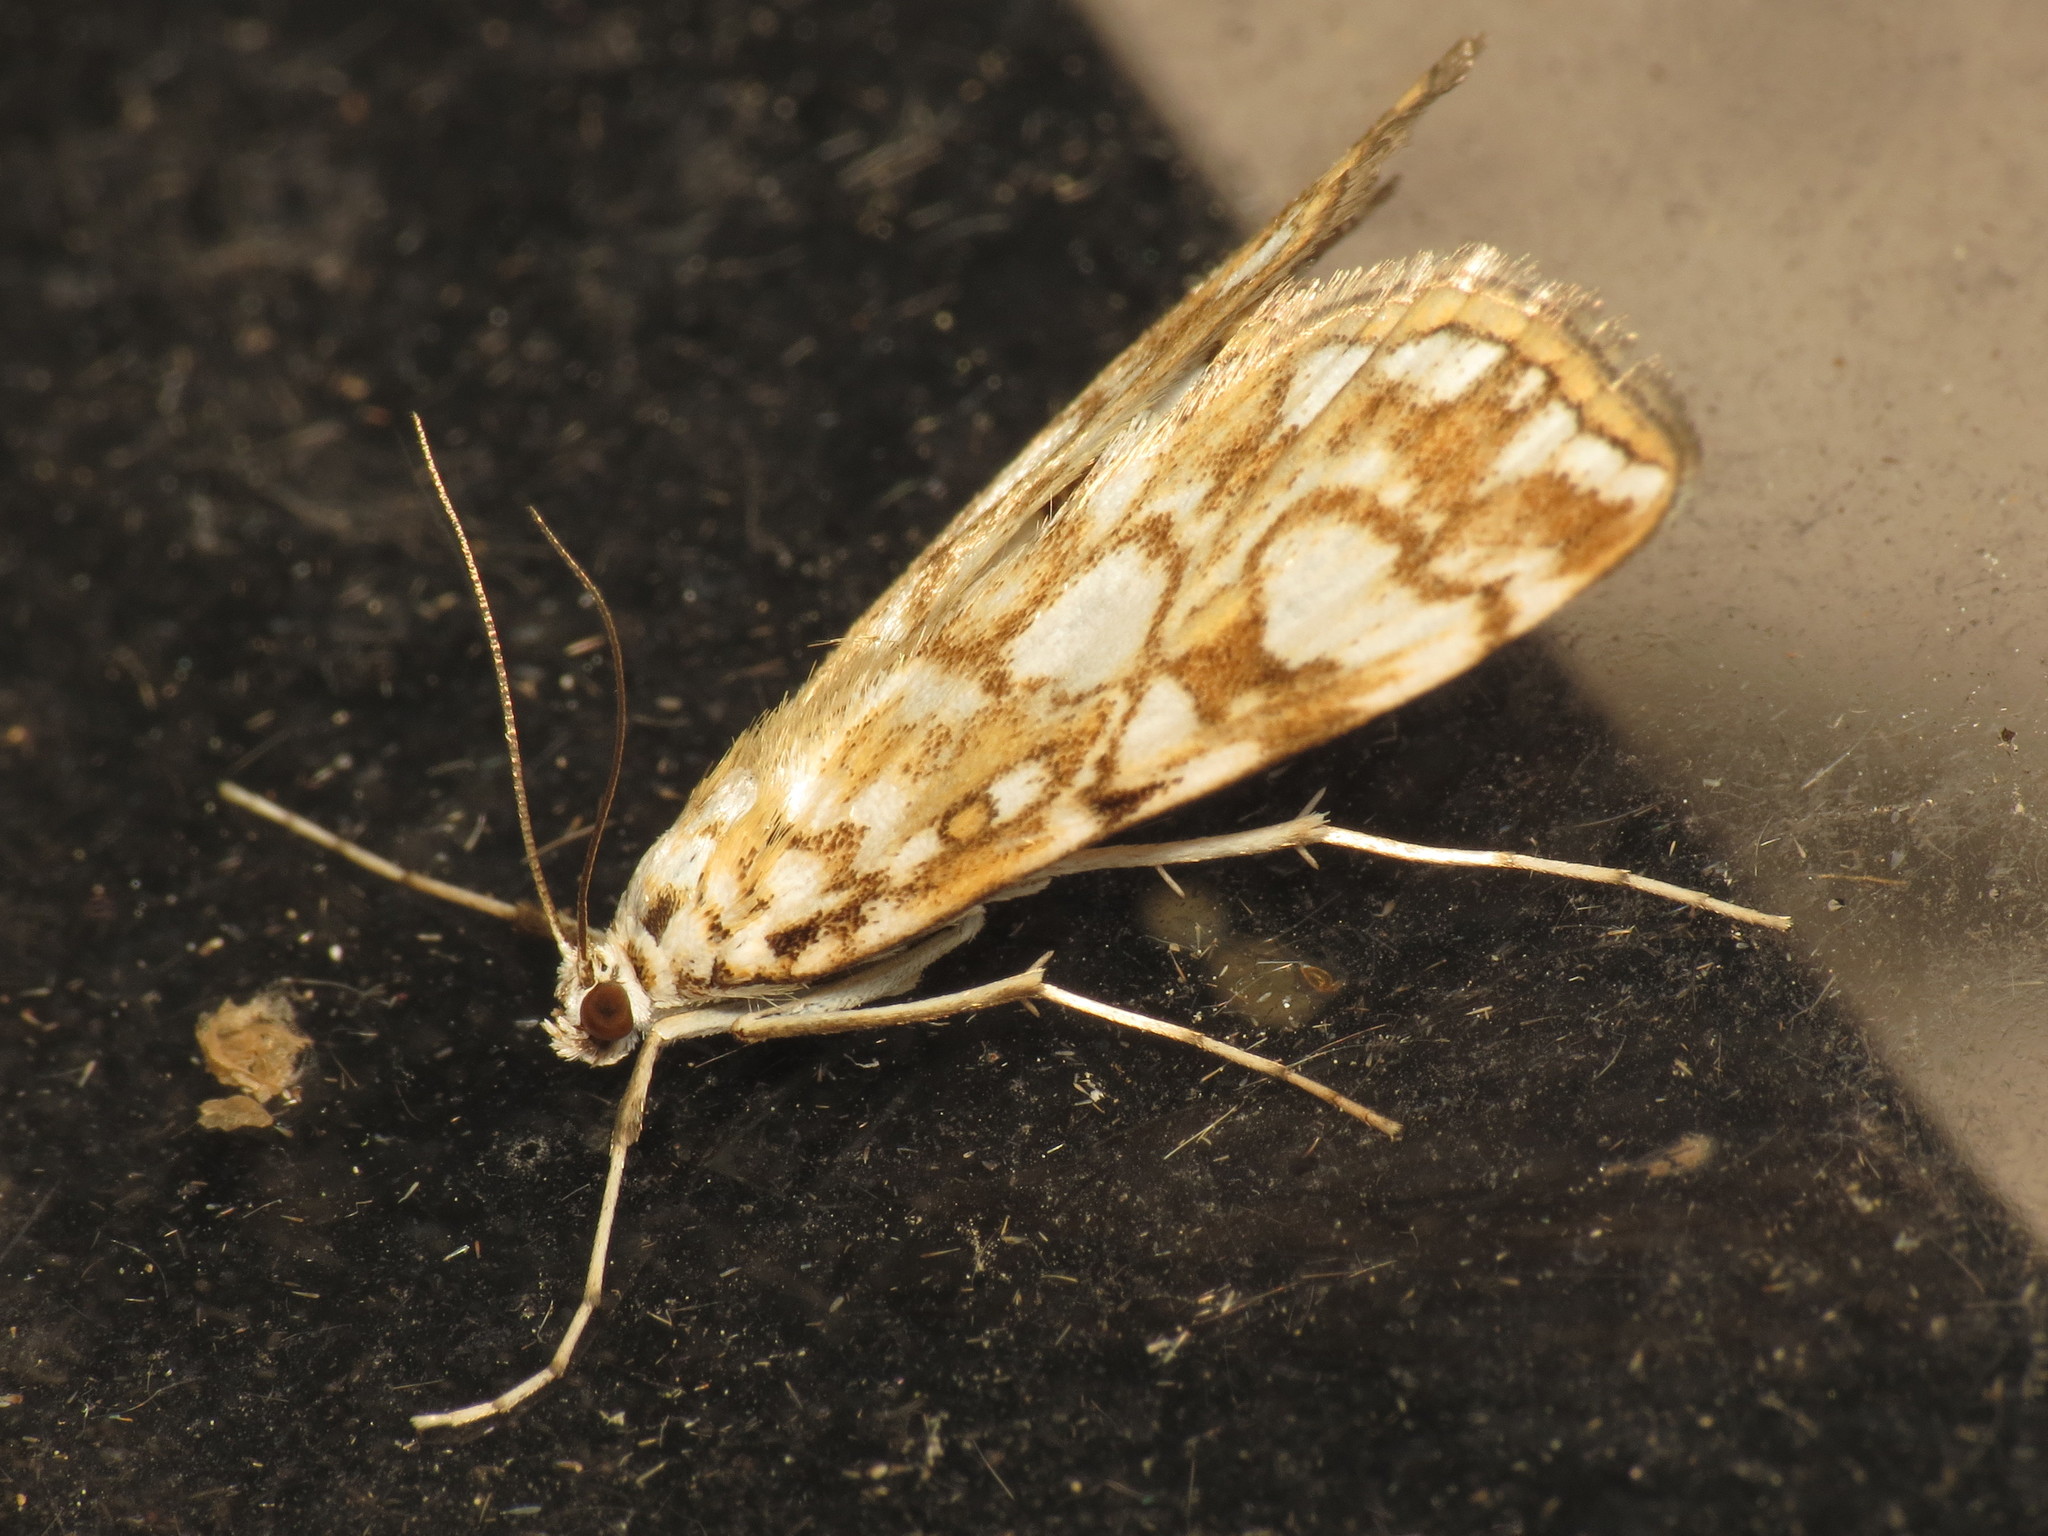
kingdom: Animalia
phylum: Arthropoda
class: Insecta
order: Lepidoptera
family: Crambidae
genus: Elophila
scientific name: Elophila nymphaeata
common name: Brown china-mark
